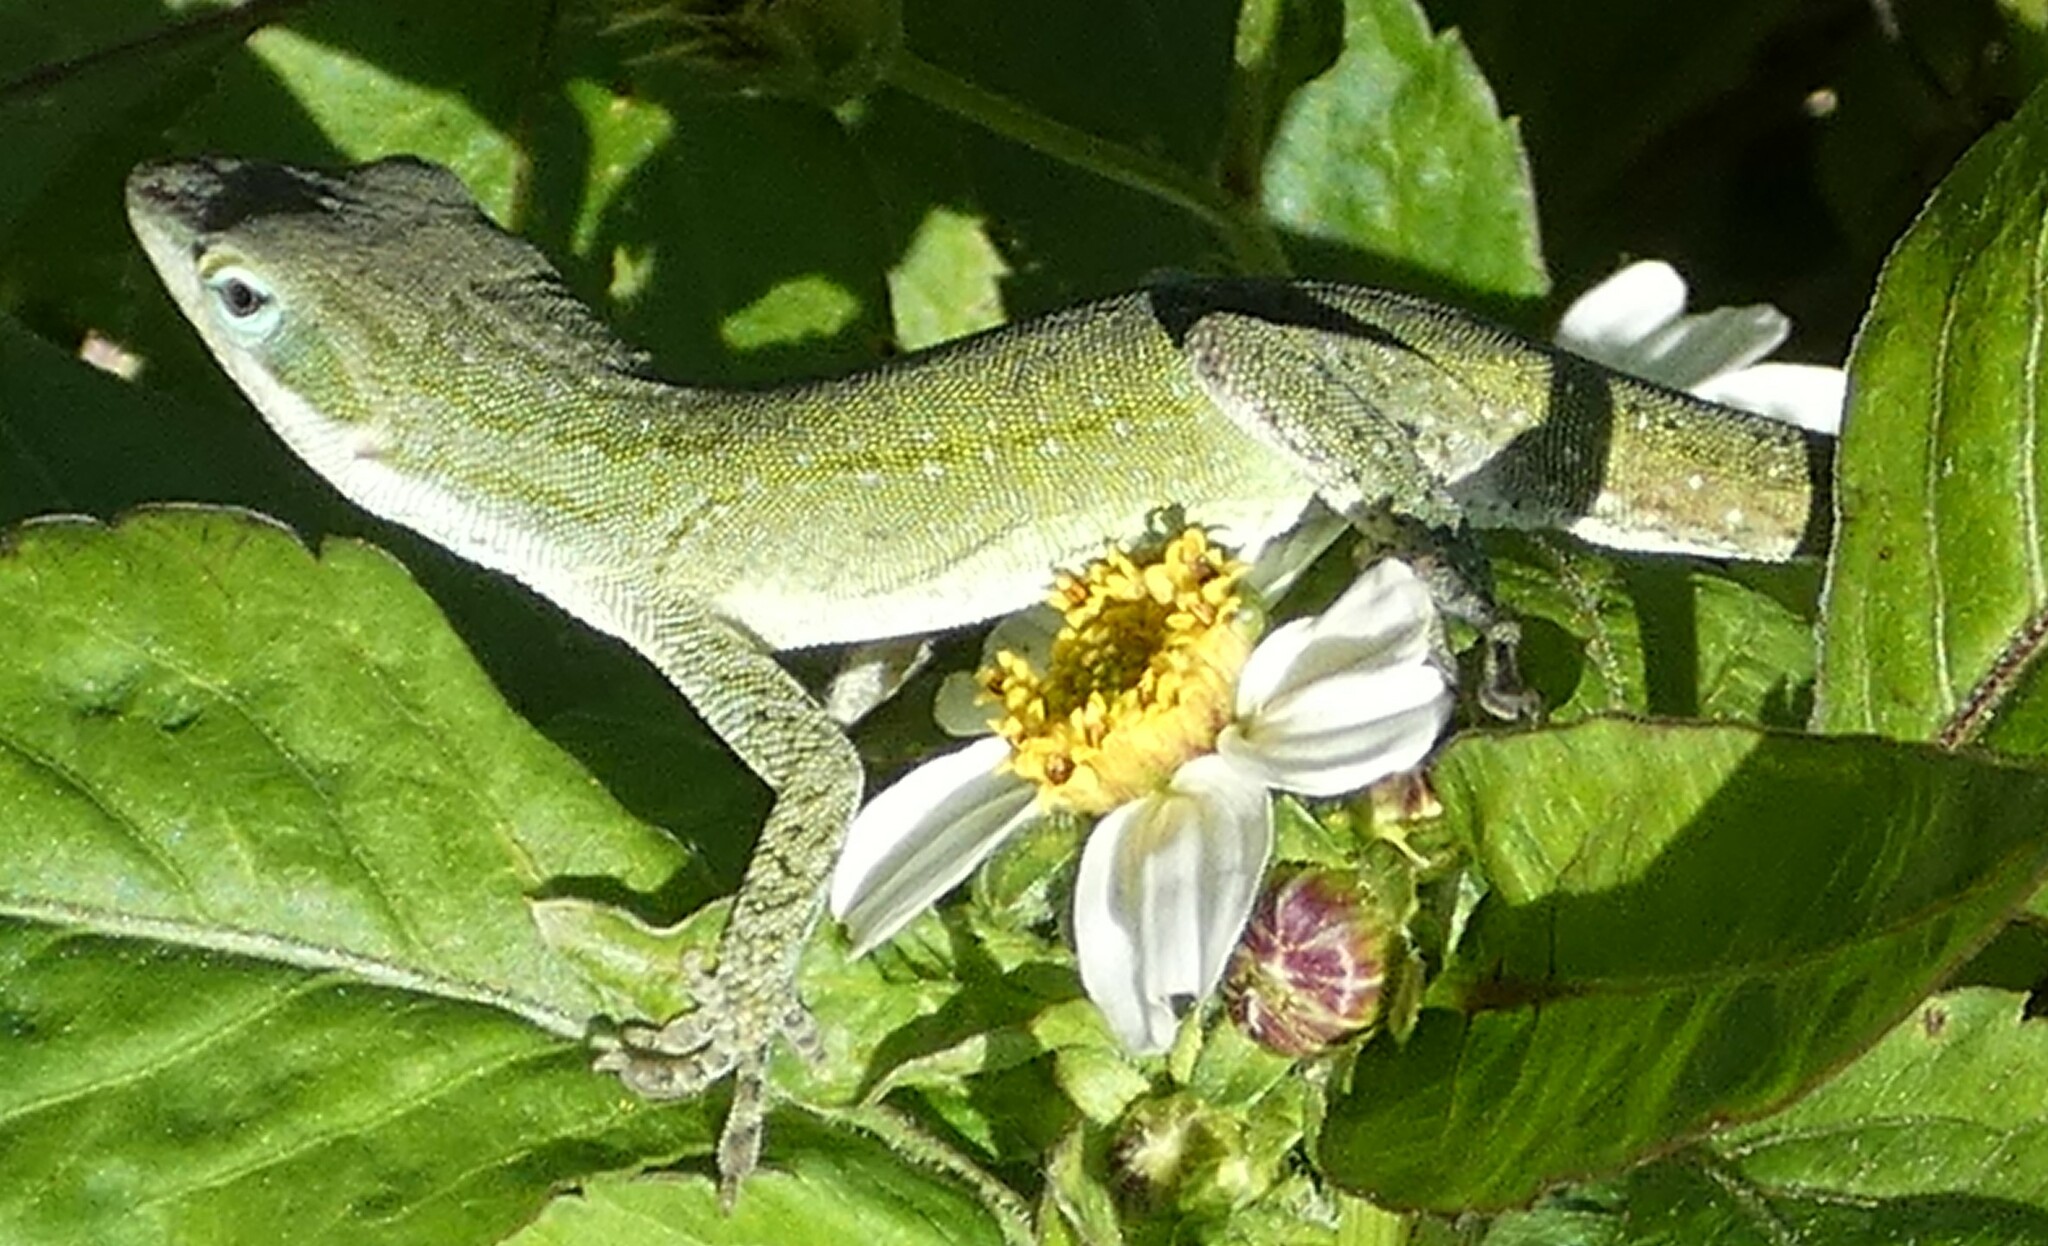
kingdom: Animalia
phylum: Chordata
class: Squamata
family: Dactyloidae
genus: Anolis
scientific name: Anolis carolinensis
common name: Green anole
